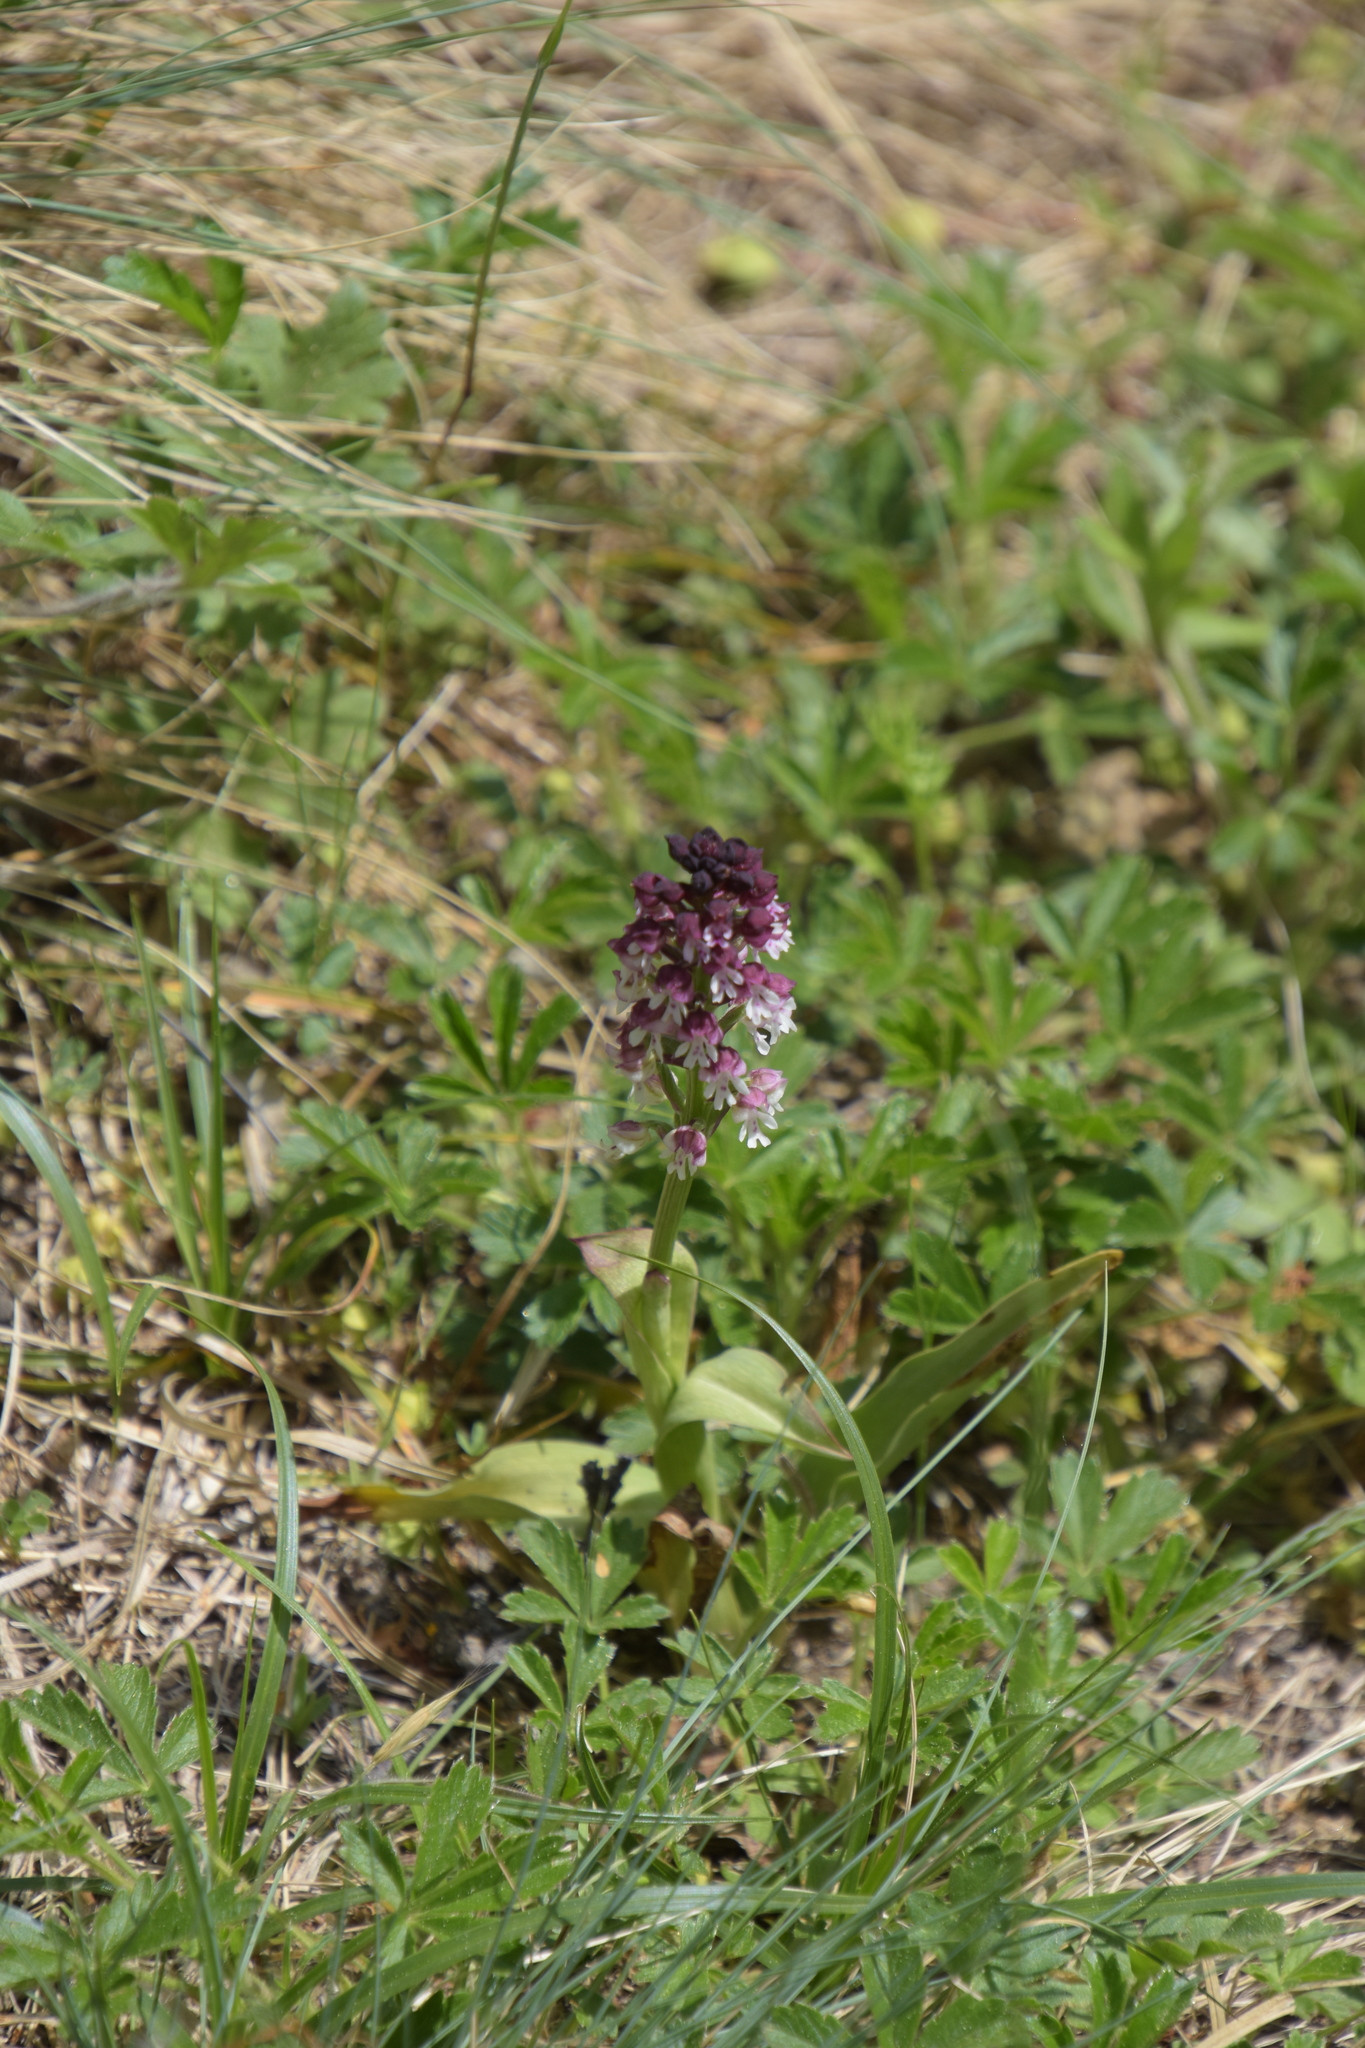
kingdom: Plantae
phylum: Tracheophyta
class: Liliopsida
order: Asparagales
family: Orchidaceae
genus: Neotinea
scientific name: Neotinea ustulata
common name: Burnt orchid
